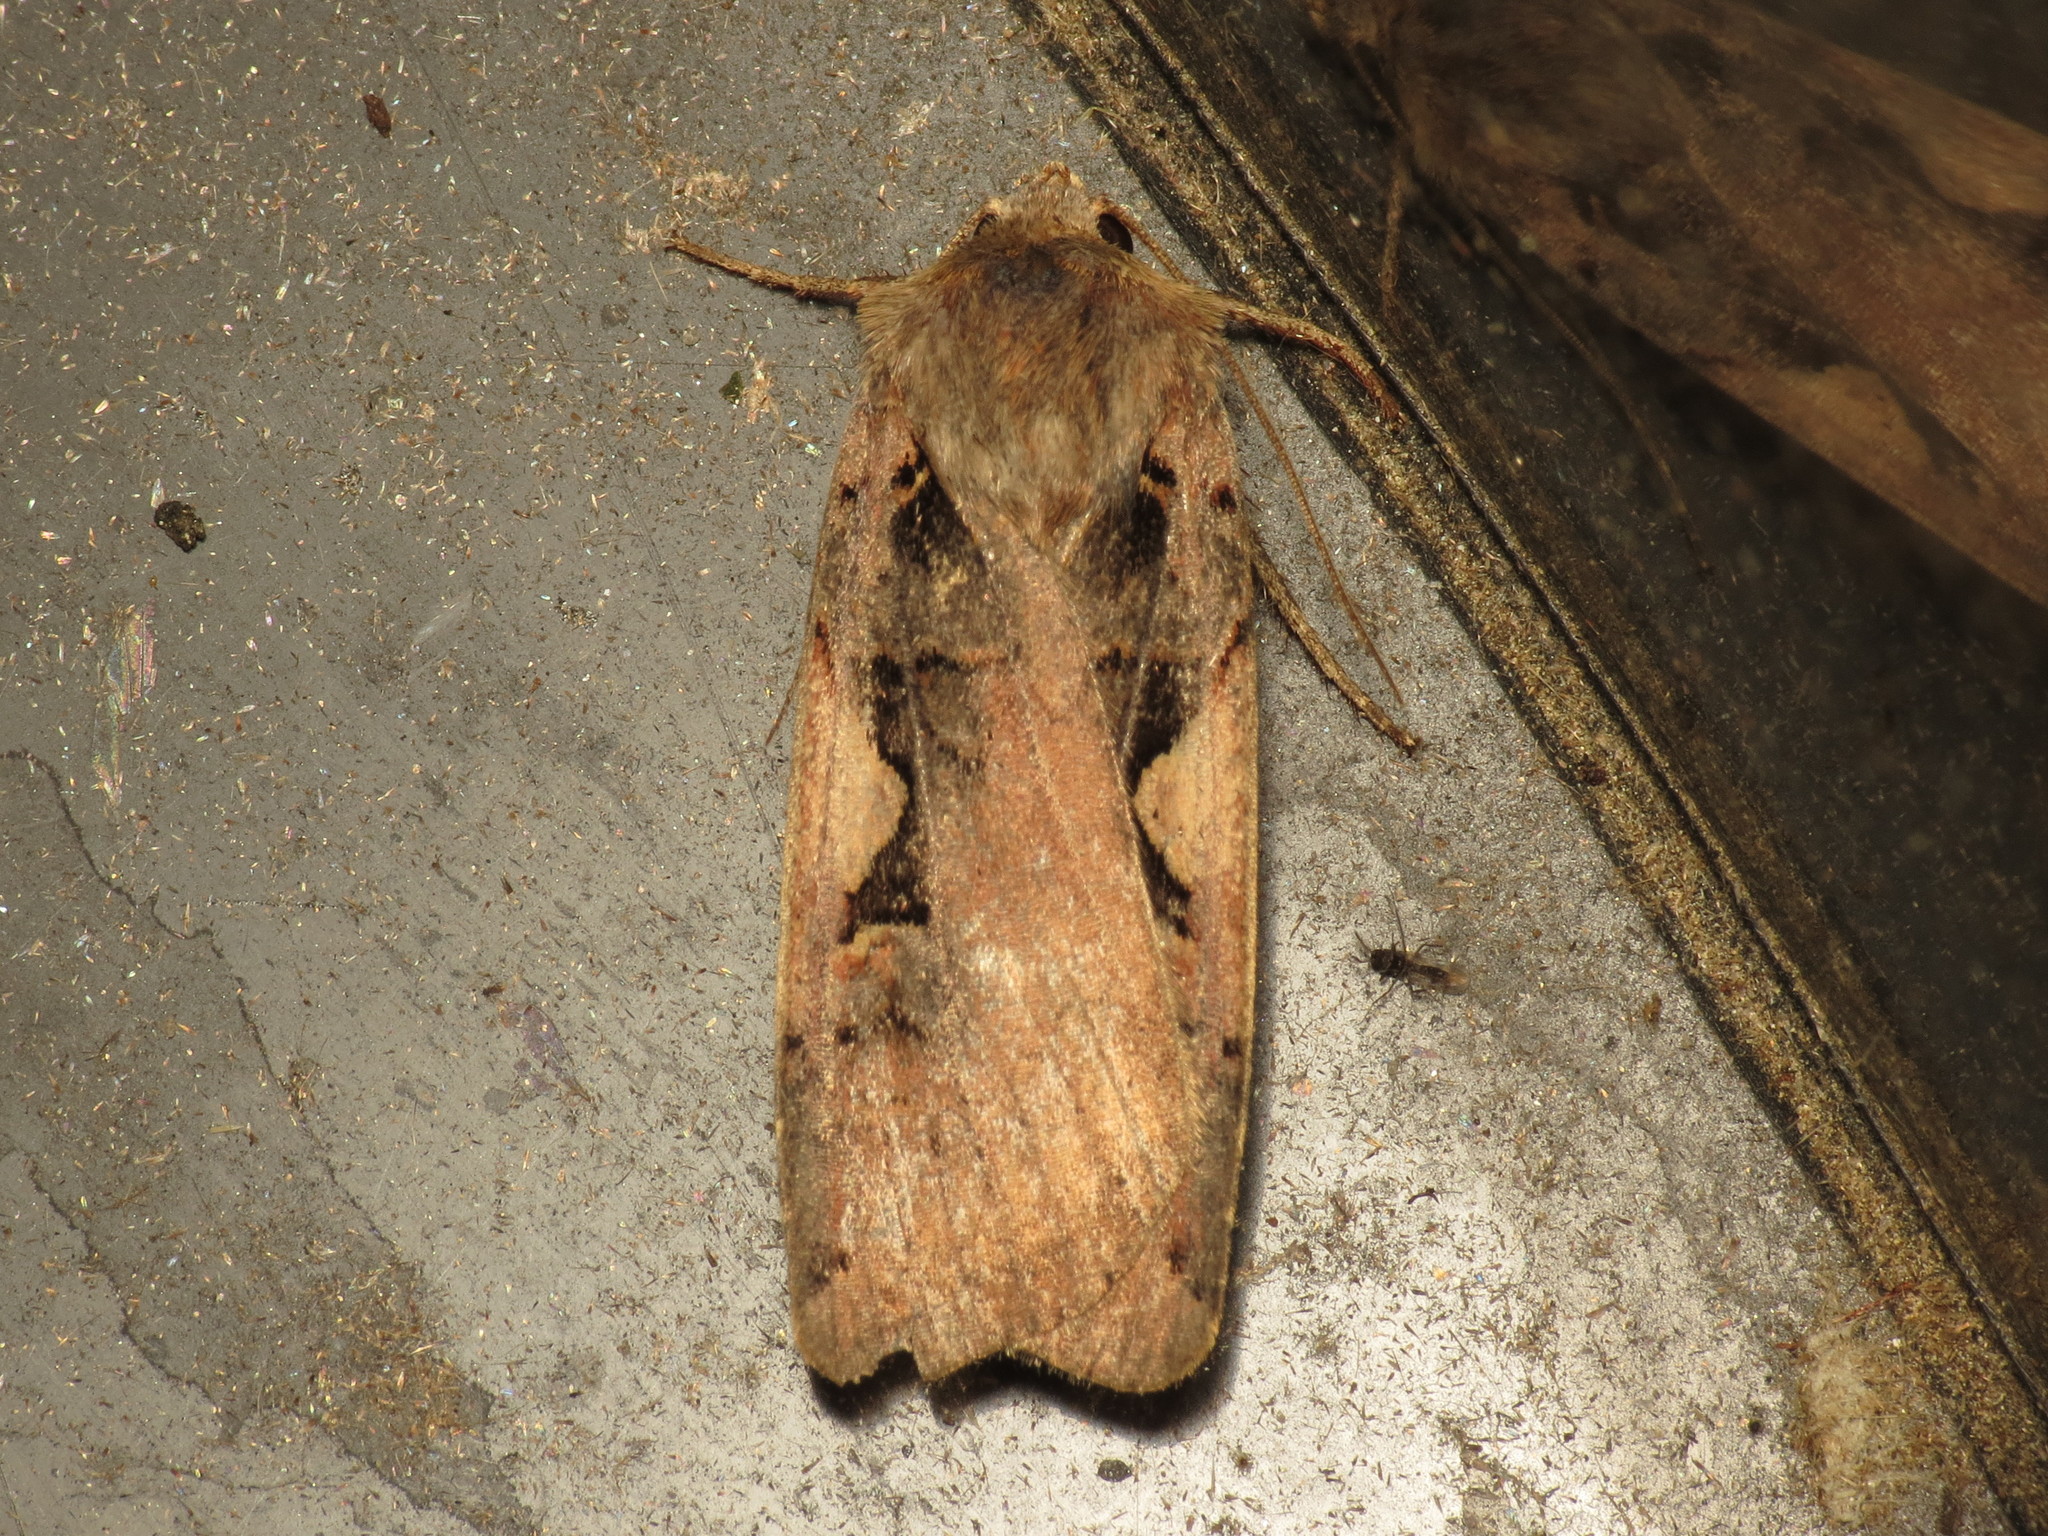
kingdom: Animalia
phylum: Arthropoda
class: Insecta
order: Lepidoptera
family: Noctuidae
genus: Xestia
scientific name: Xestia c-nigrum
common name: Setaceous hebrew character
